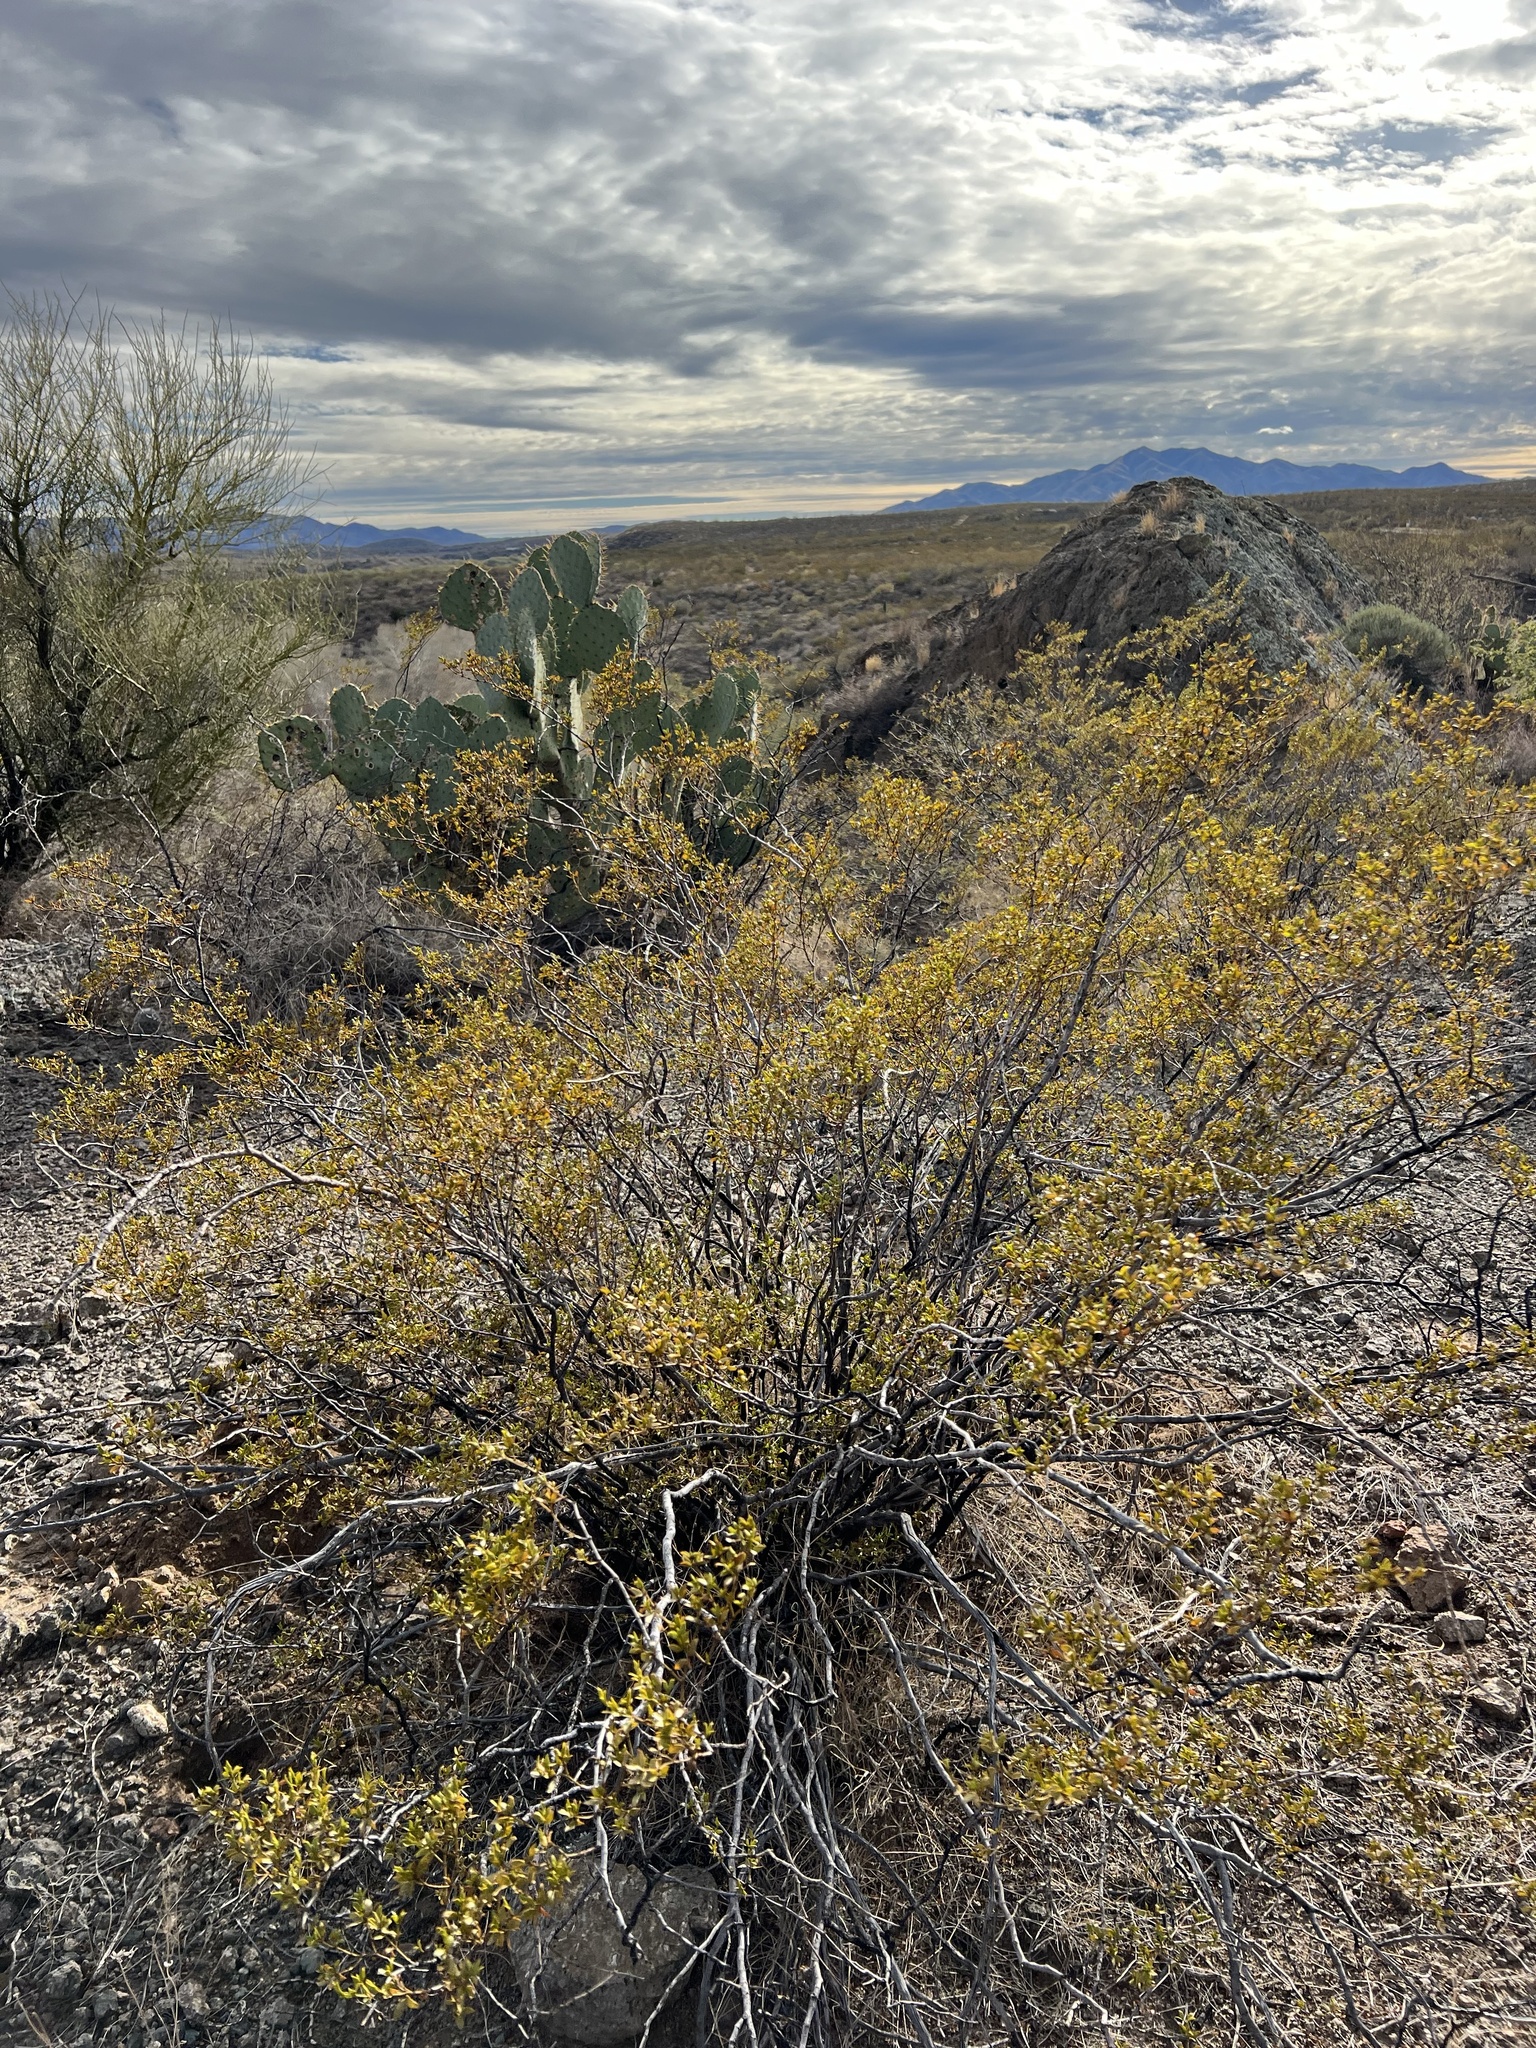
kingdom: Plantae
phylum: Tracheophyta
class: Magnoliopsida
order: Zygophyllales
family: Zygophyllaceae
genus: Larrea
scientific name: Larrea tridentata
